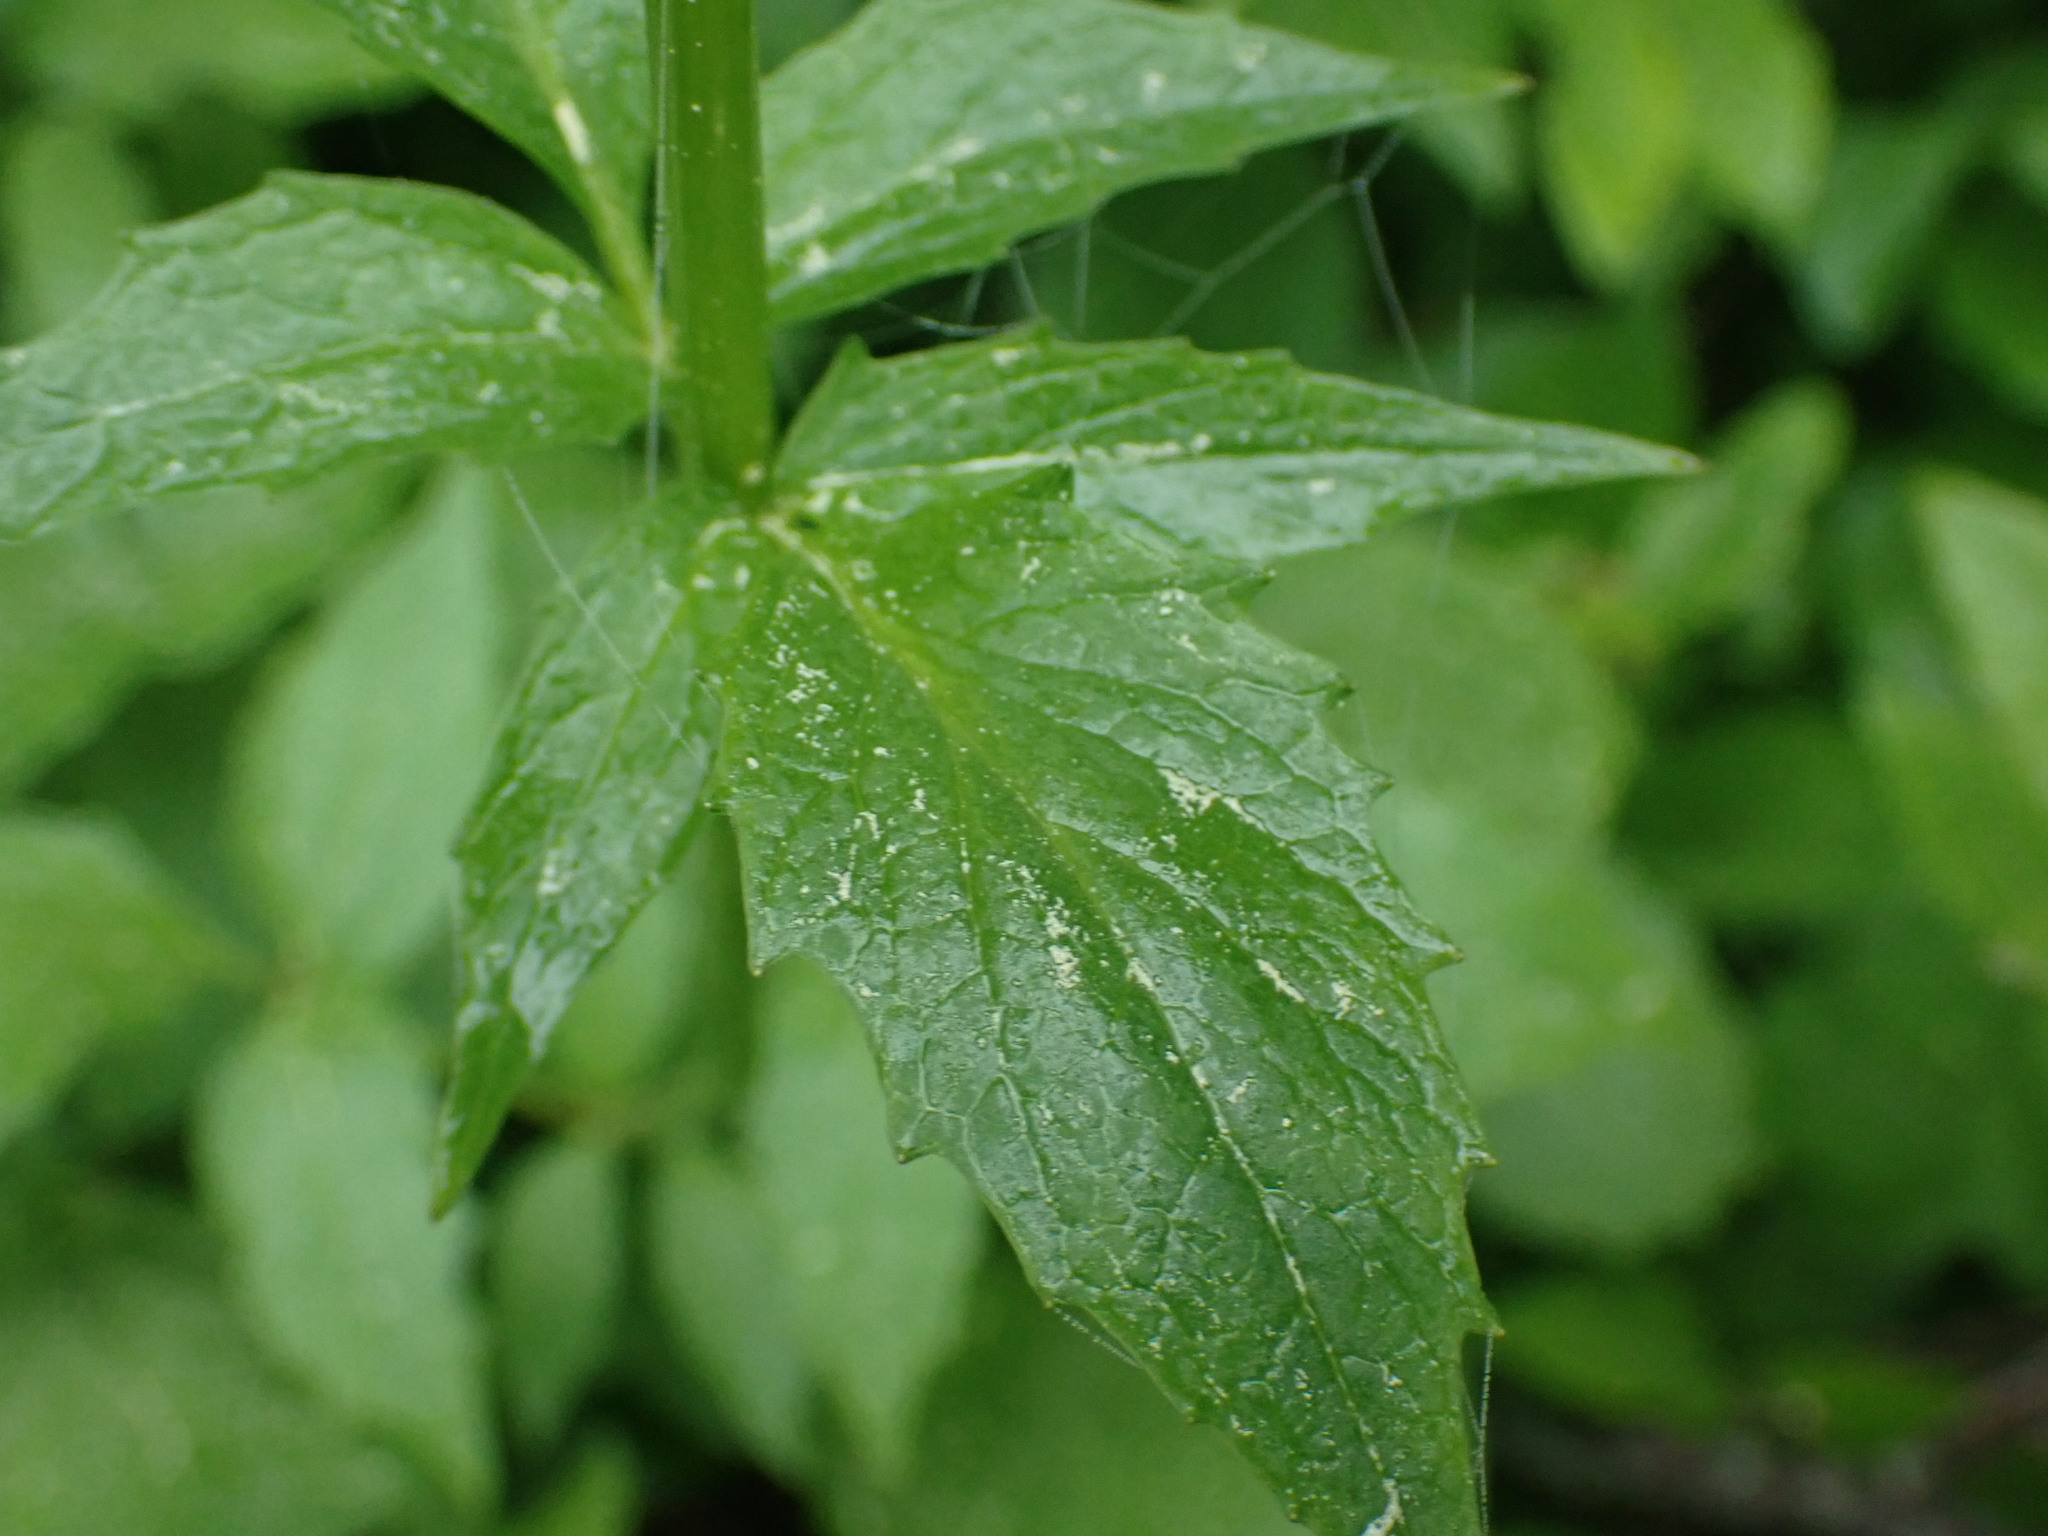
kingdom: Plantae
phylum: Tracheophyta
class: Magnoliopsida
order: Dipsacales
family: Caprifoliaceae
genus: Valeriana
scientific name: Valeriana sitchensis
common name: Pacific valerian
